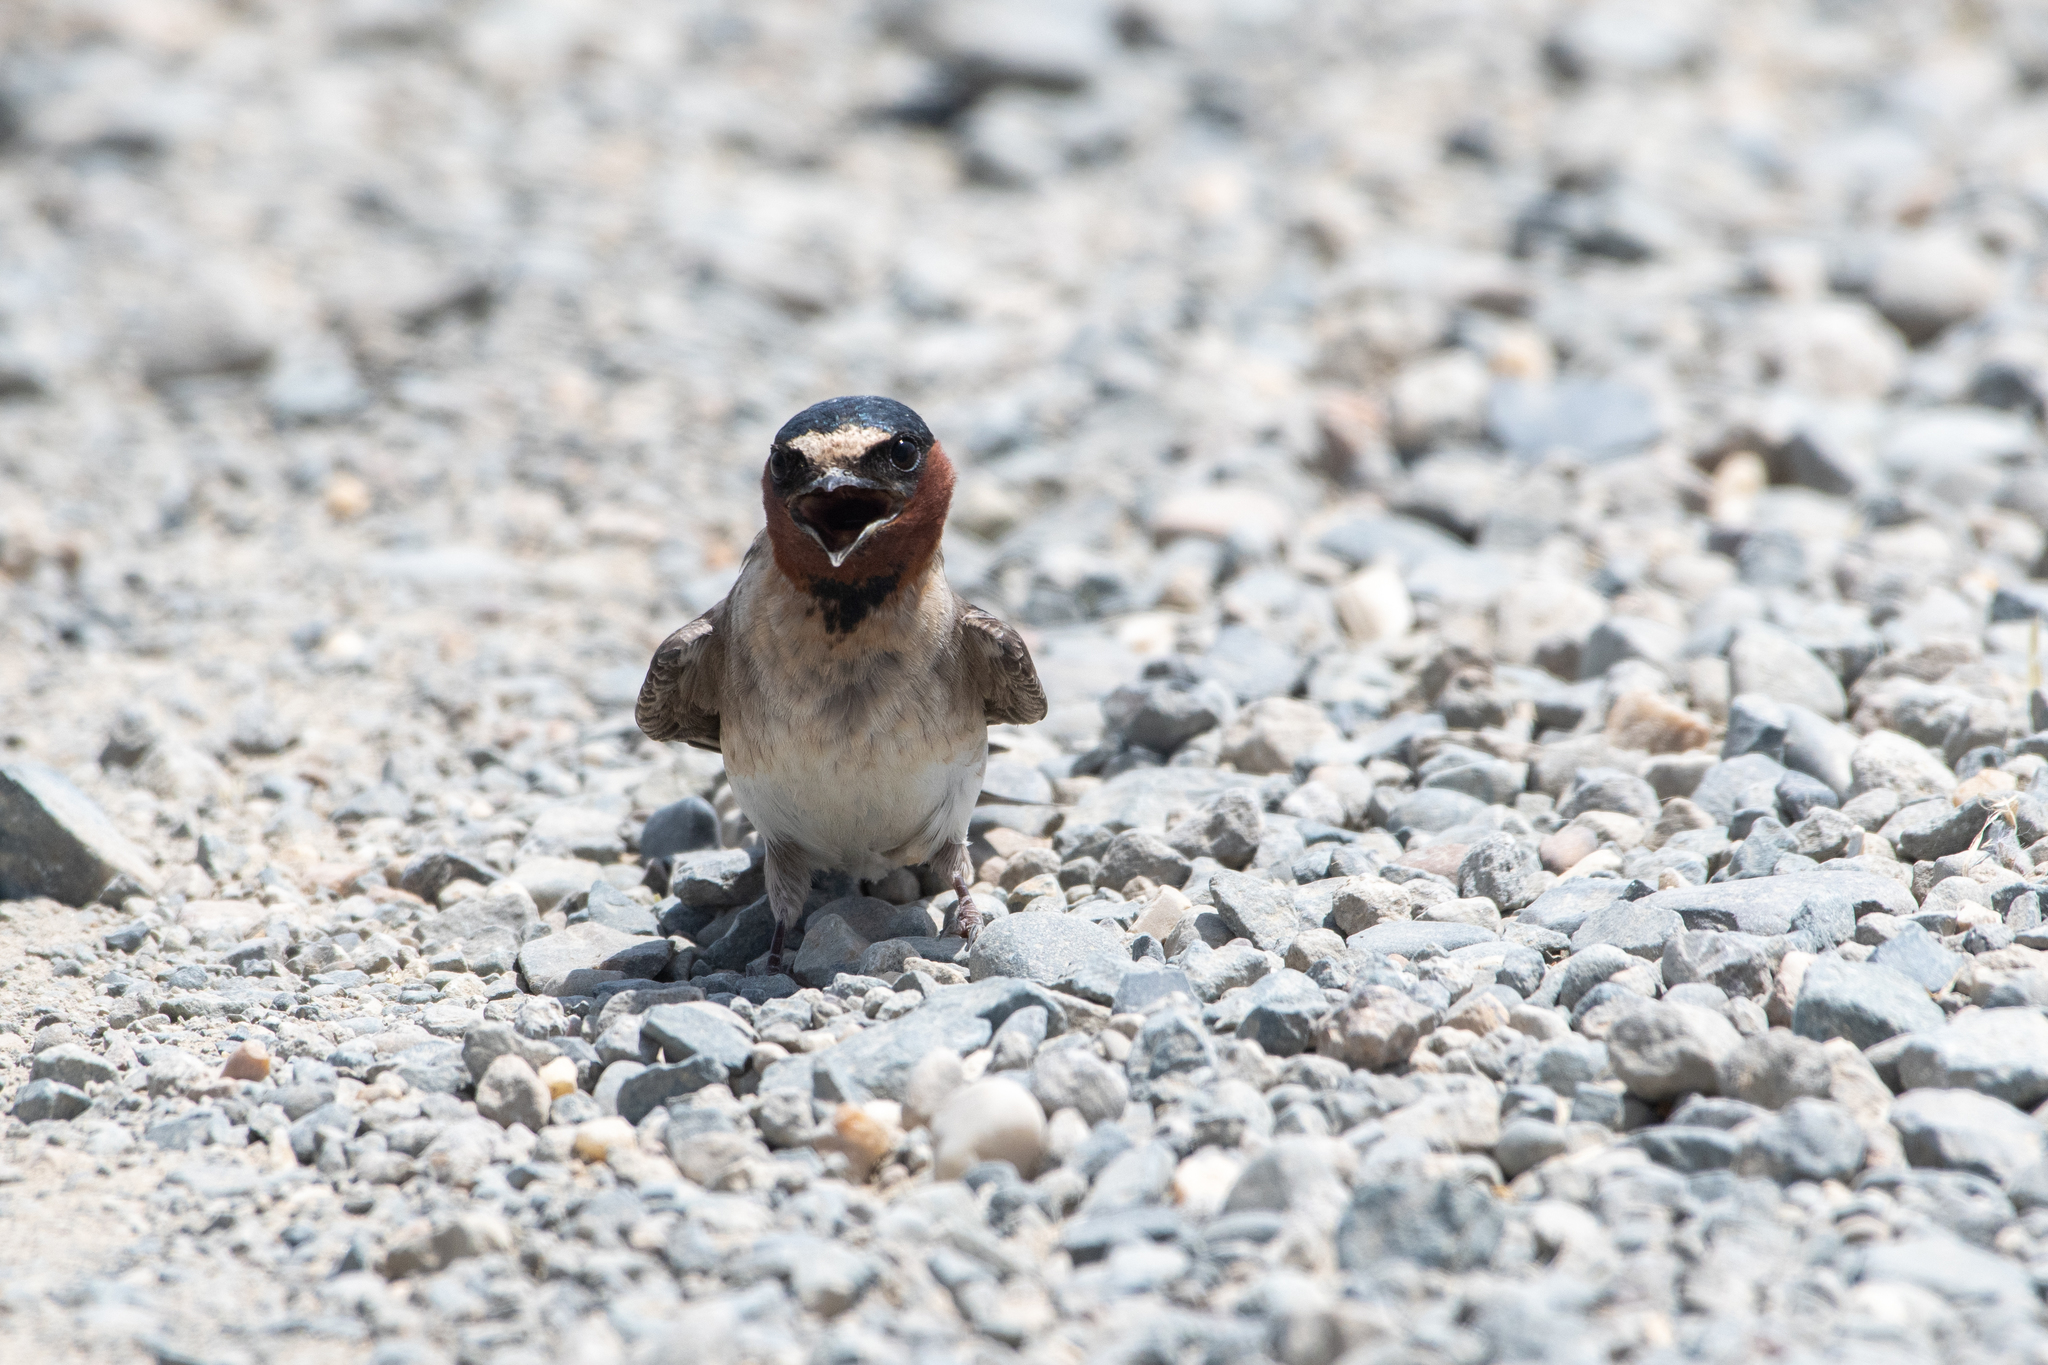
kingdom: Animalia
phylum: Chordata
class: Aves
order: Passeriformes
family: Hirundinidae
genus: Petrochelidon
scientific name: Petrochelidon pyrrhonota
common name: American cliff swallow
